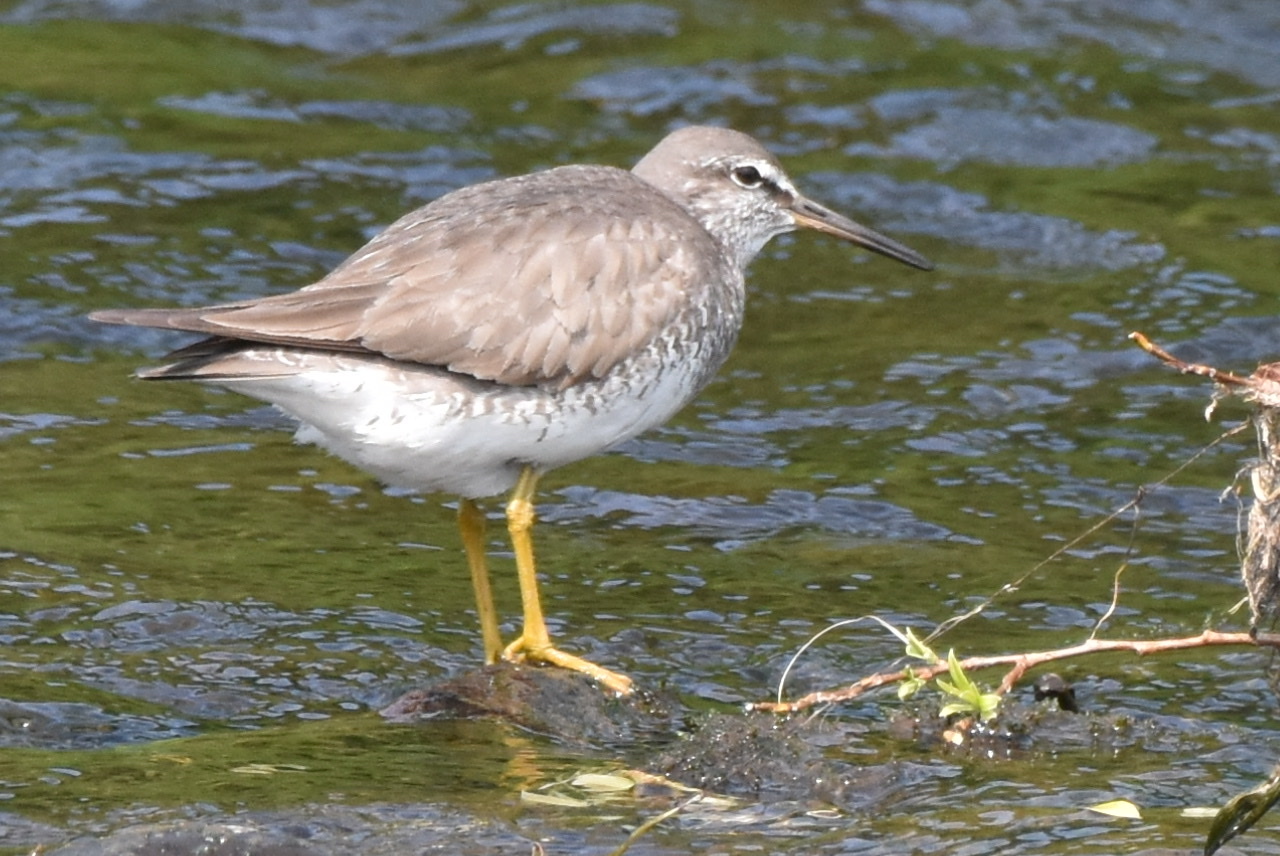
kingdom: Animalia
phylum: Chordata
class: Aves
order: Charadriiformes
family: Scolopacidae
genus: Tringa
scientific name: Tringa brevipes
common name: Grey-tailed tattler
